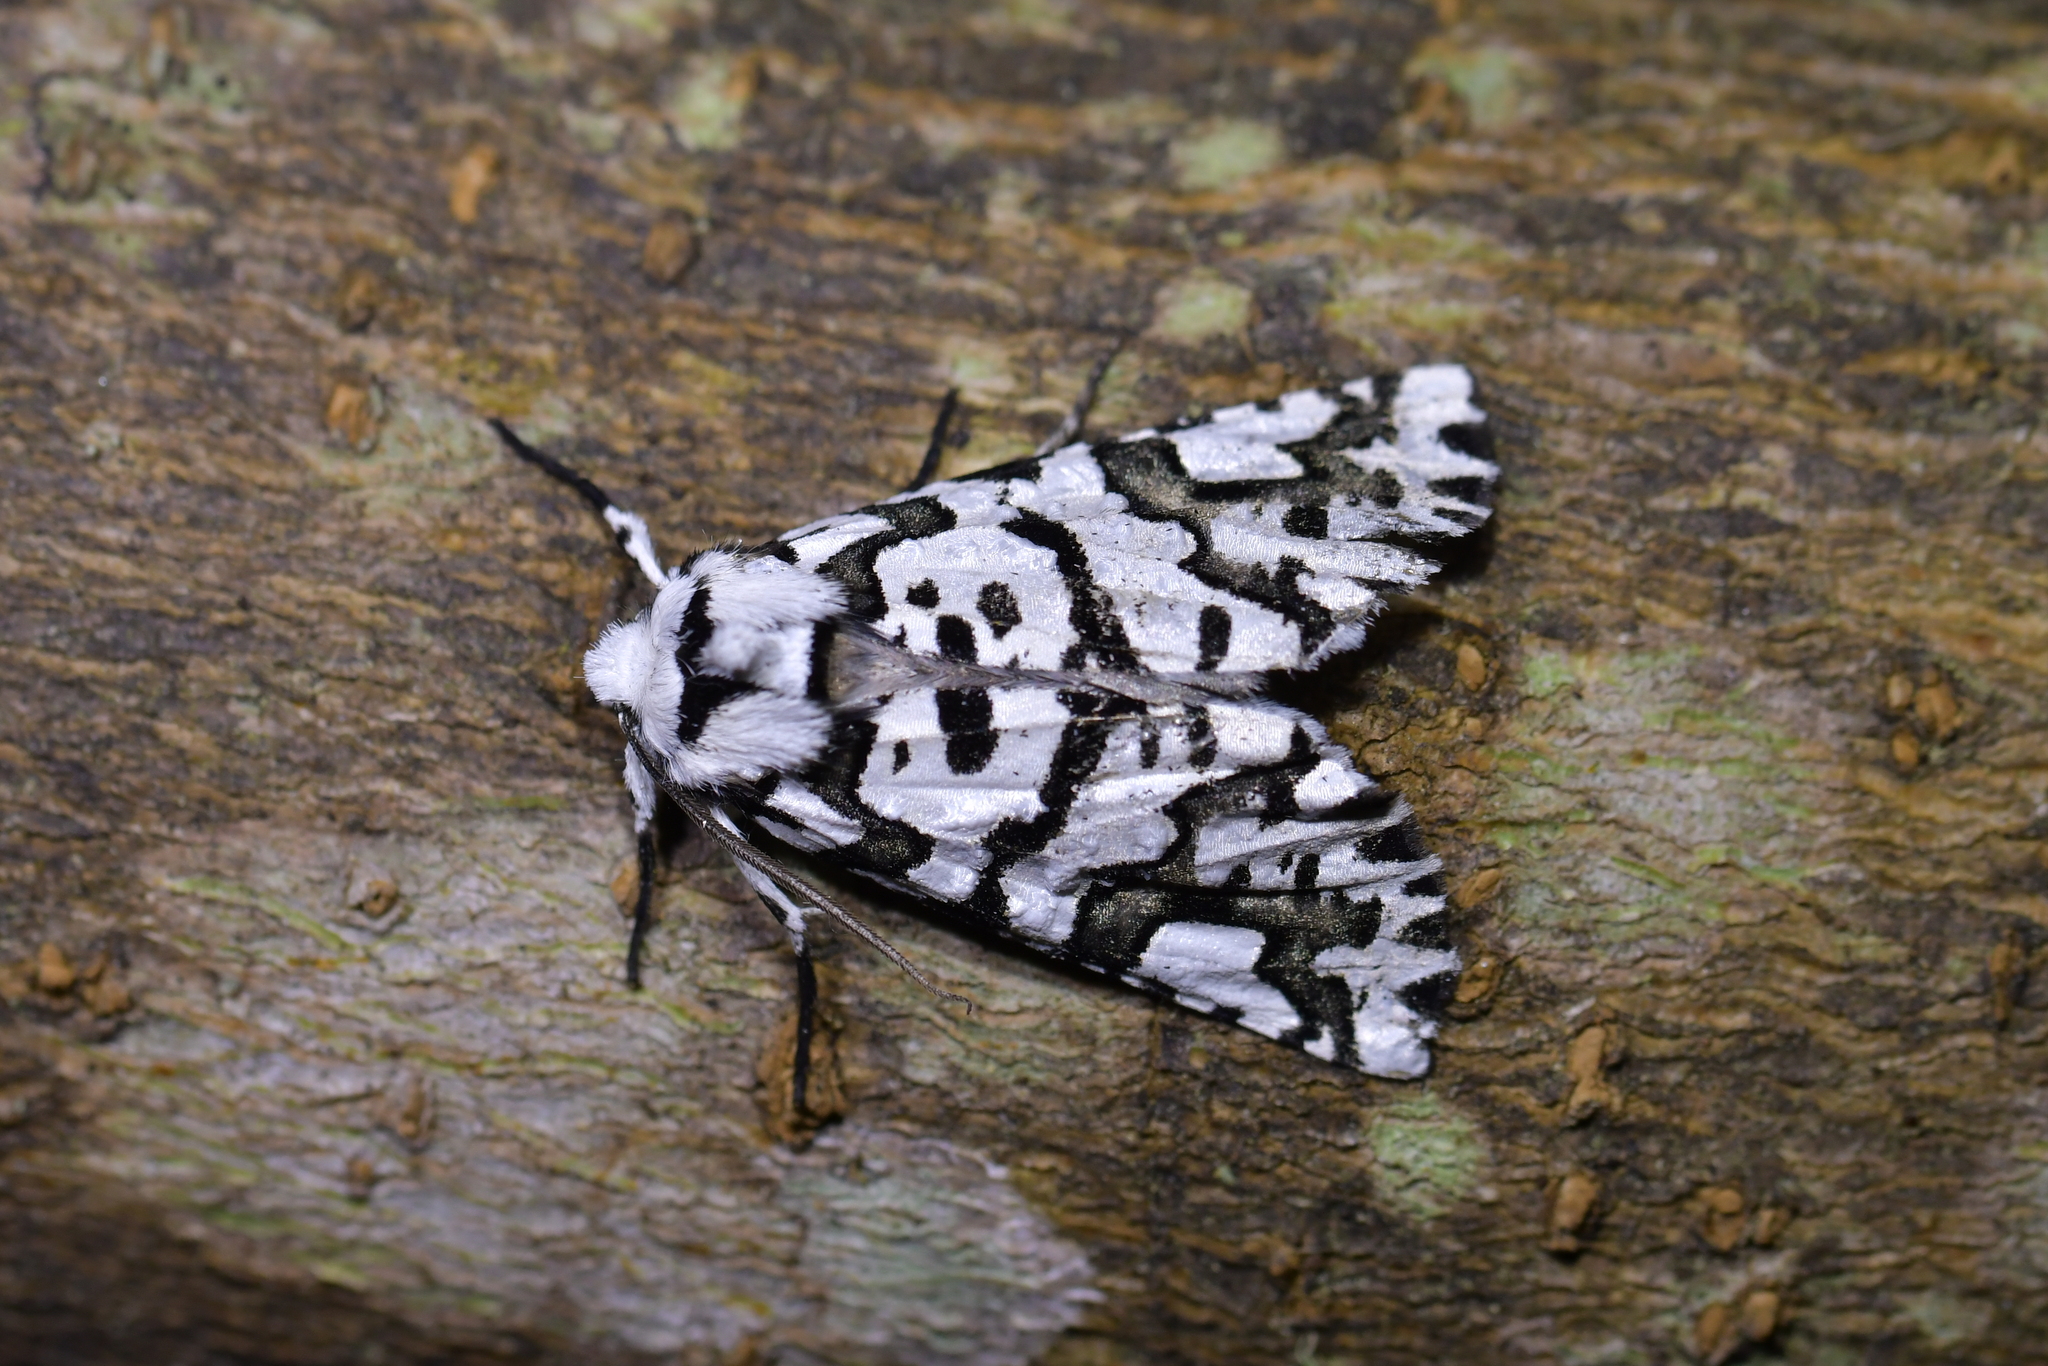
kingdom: Animalia
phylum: Arthropoda
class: Insecta
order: Lepidoptera
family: Geometridae
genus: Declana
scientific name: Declana
